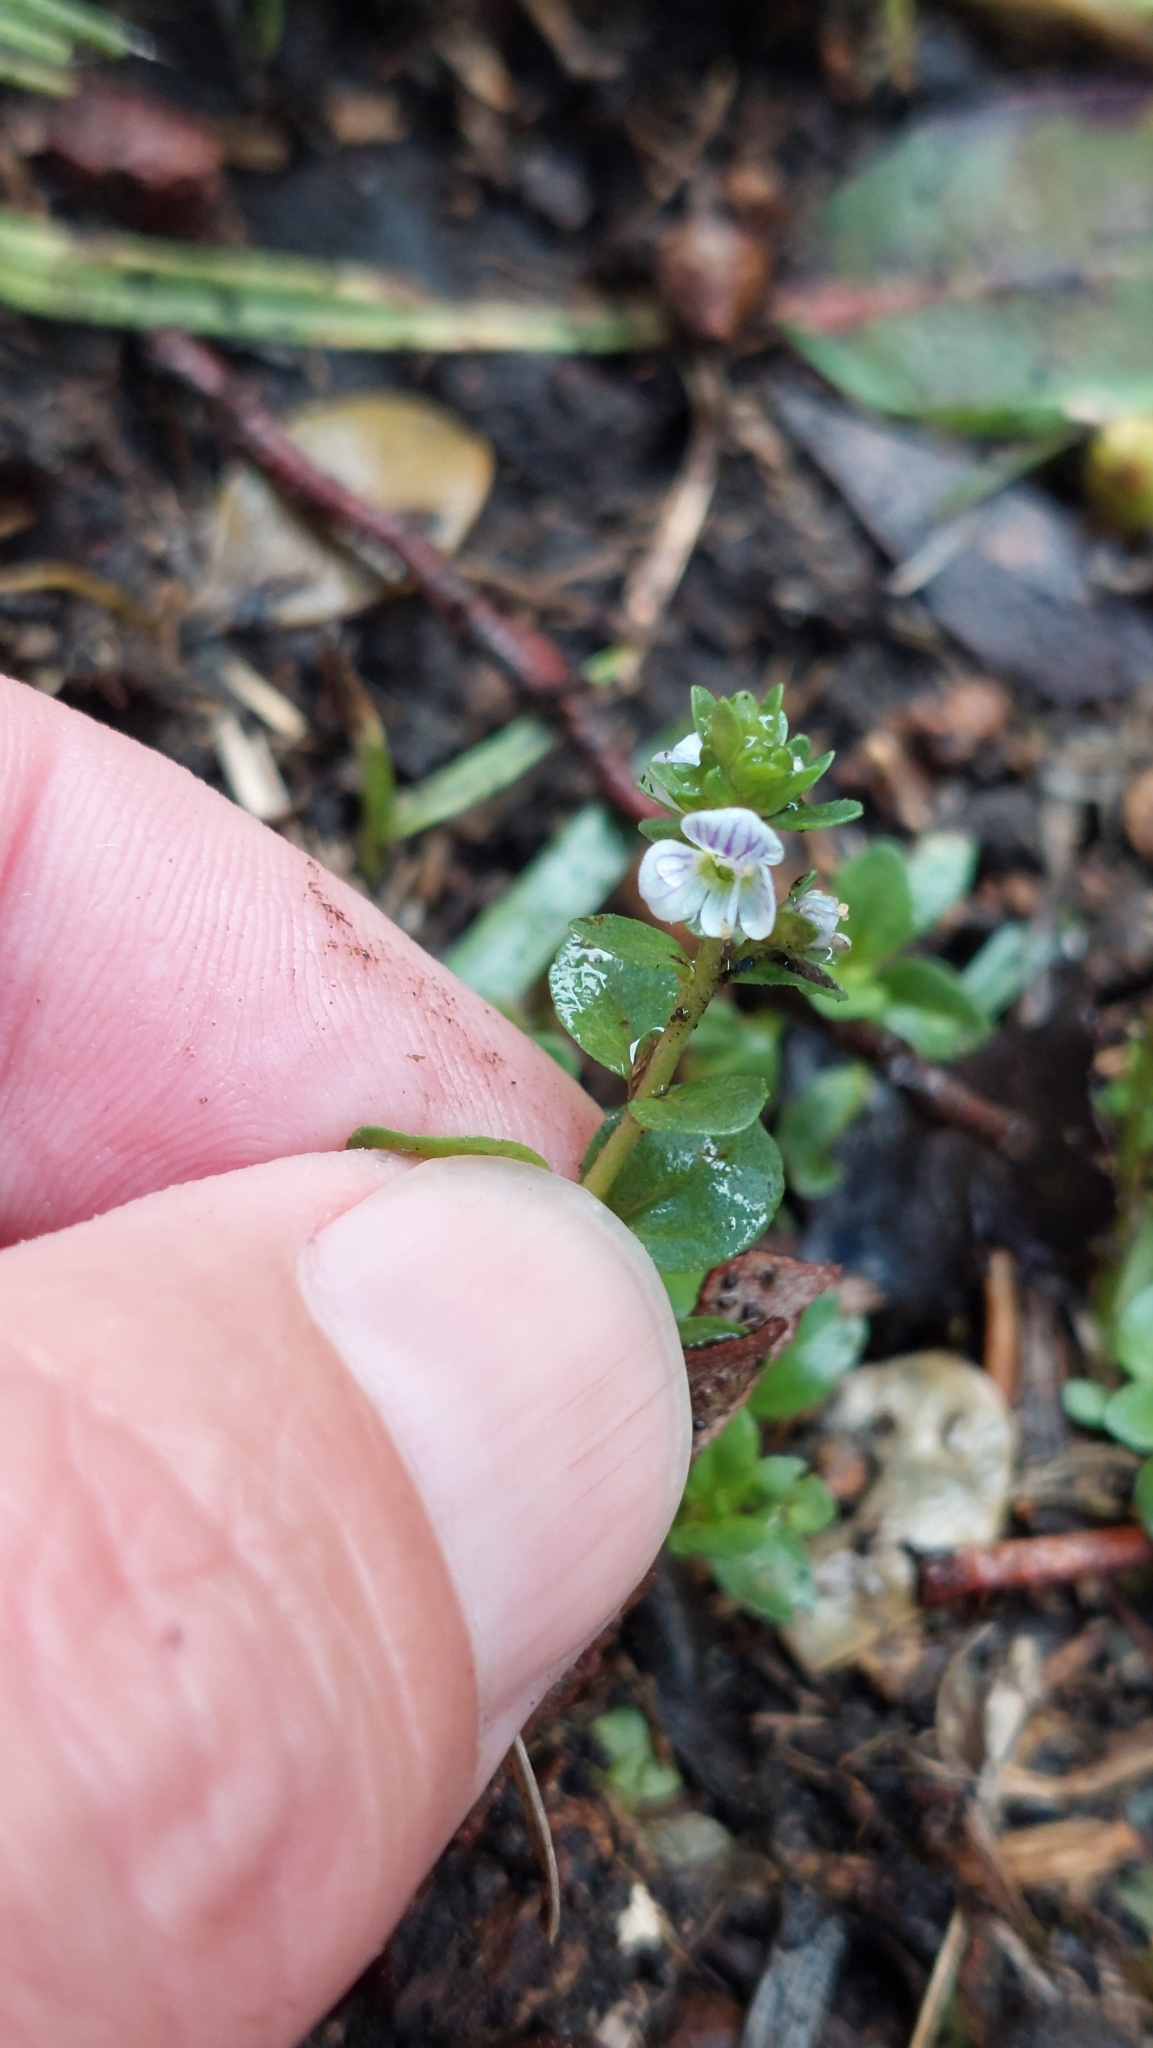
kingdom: Plantae
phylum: Tracheophyta
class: Magnoliopsida
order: Lamiales
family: Plantaginaceae
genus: Veronica
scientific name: Veronica serpyllifolia
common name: Thyme-leaved speedwell
